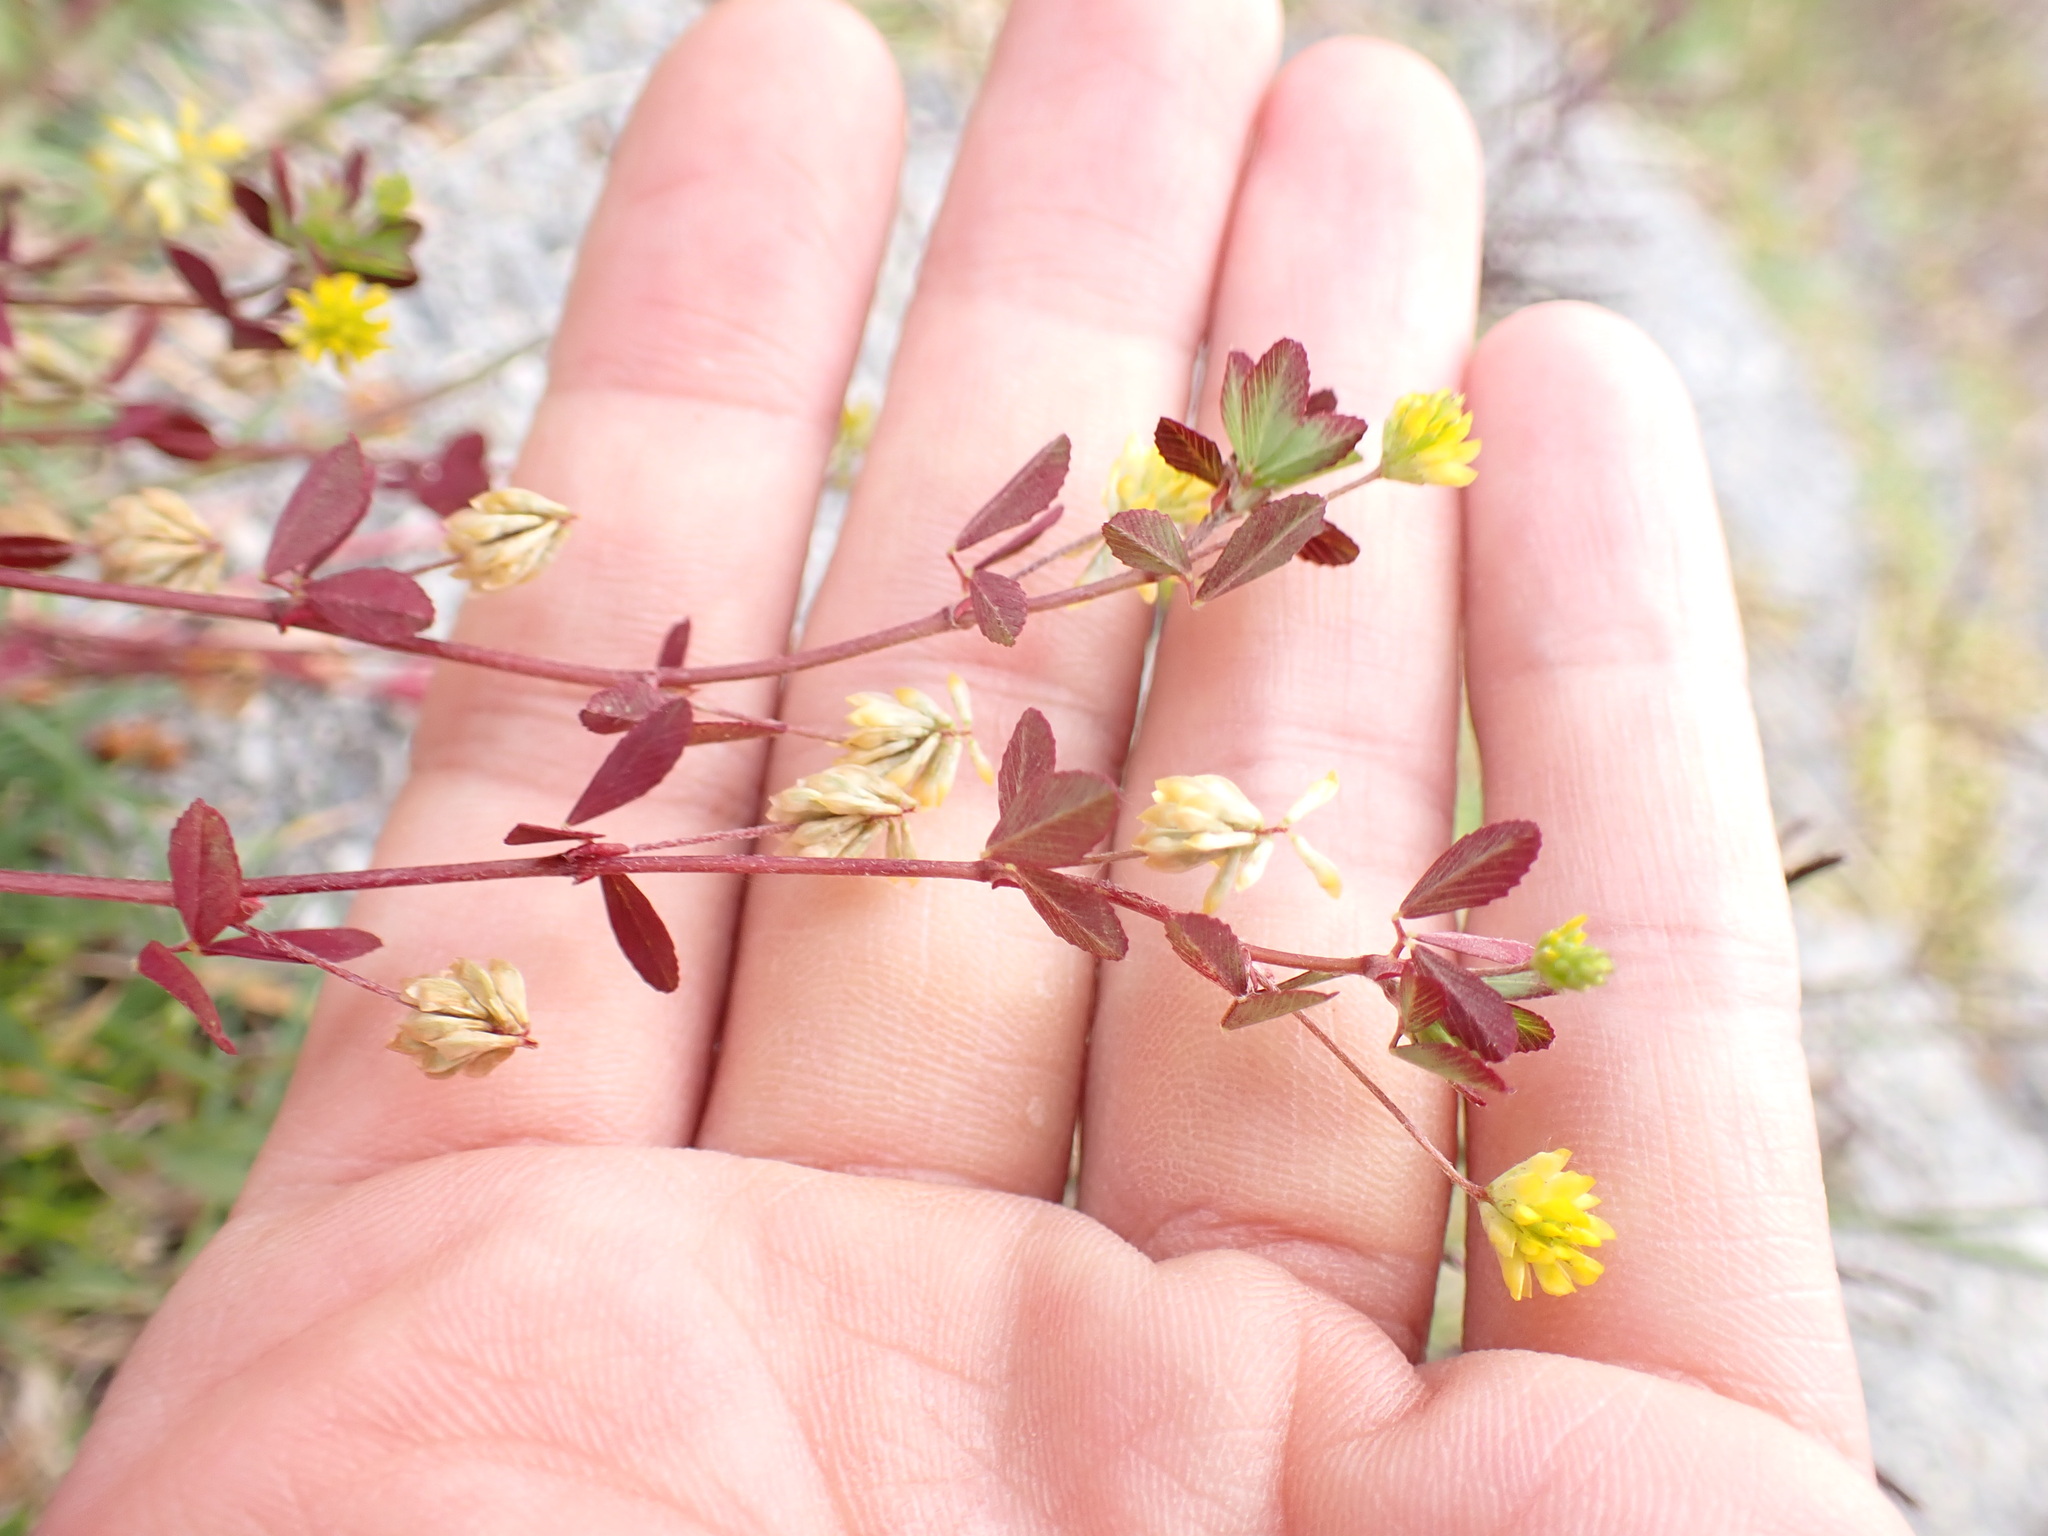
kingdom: Plantae
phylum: Tracheophyta
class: Magnoliopsida
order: Fabales
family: Fabaceae
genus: Trifolium
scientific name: Trifolium dubium
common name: Suckling clover
